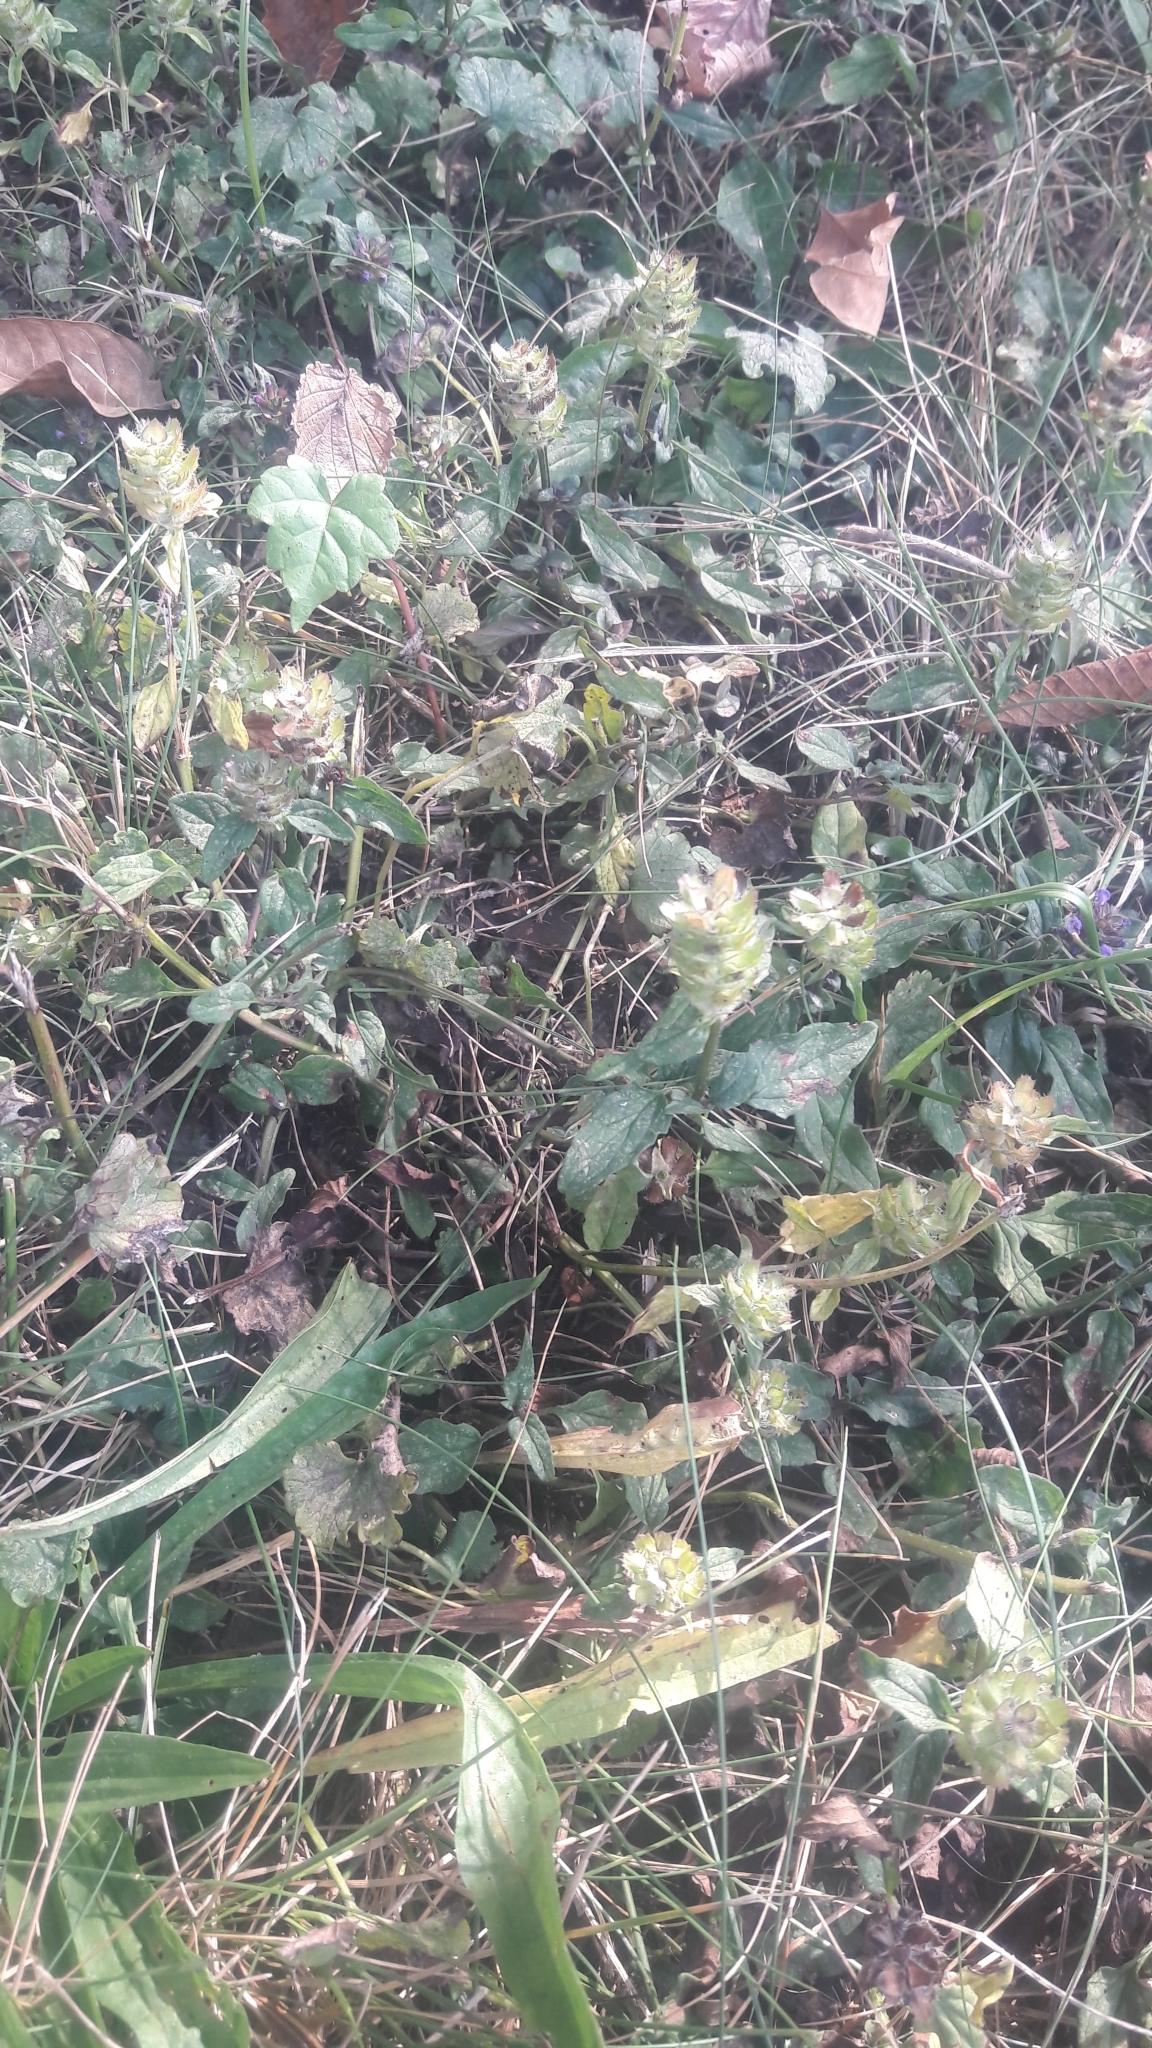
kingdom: Plantae
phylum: Tracheophyta
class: Magnoliopsida
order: Lamiales
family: Lamiaceae
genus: Prunella
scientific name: Prunella vulgaris
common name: Heal-all
